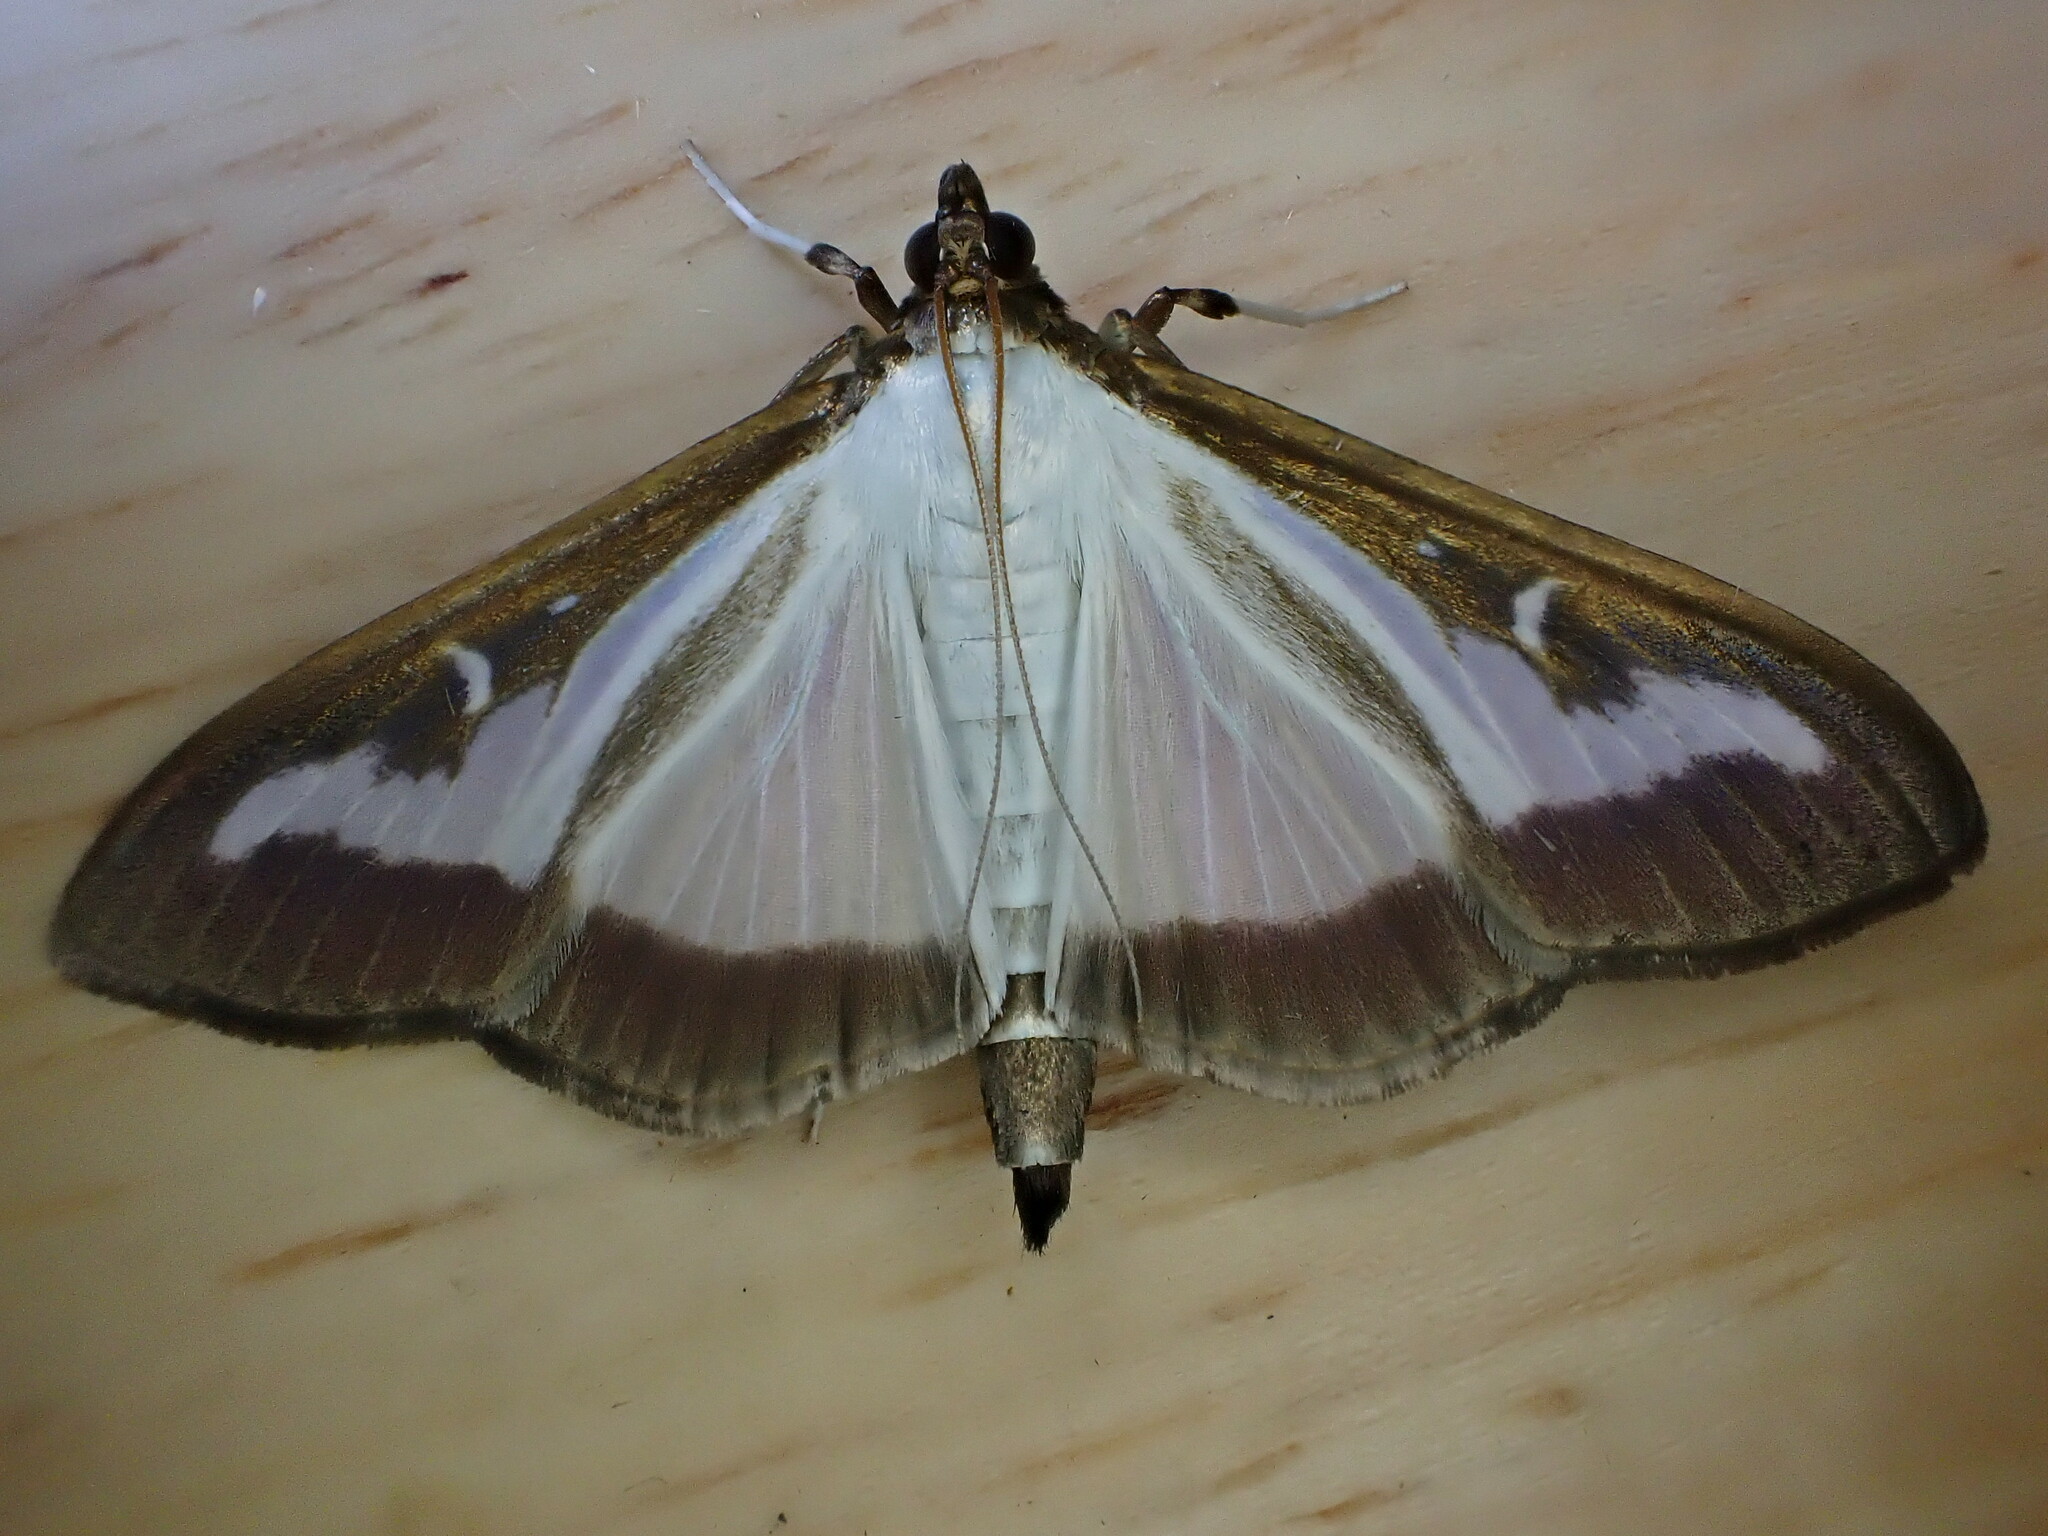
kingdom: Animalia
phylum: Arthropoda
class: Insecta
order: Lepidoptera
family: Crambidae
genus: Cydalima
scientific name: Cydalima perspectalis
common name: Box tree moth
